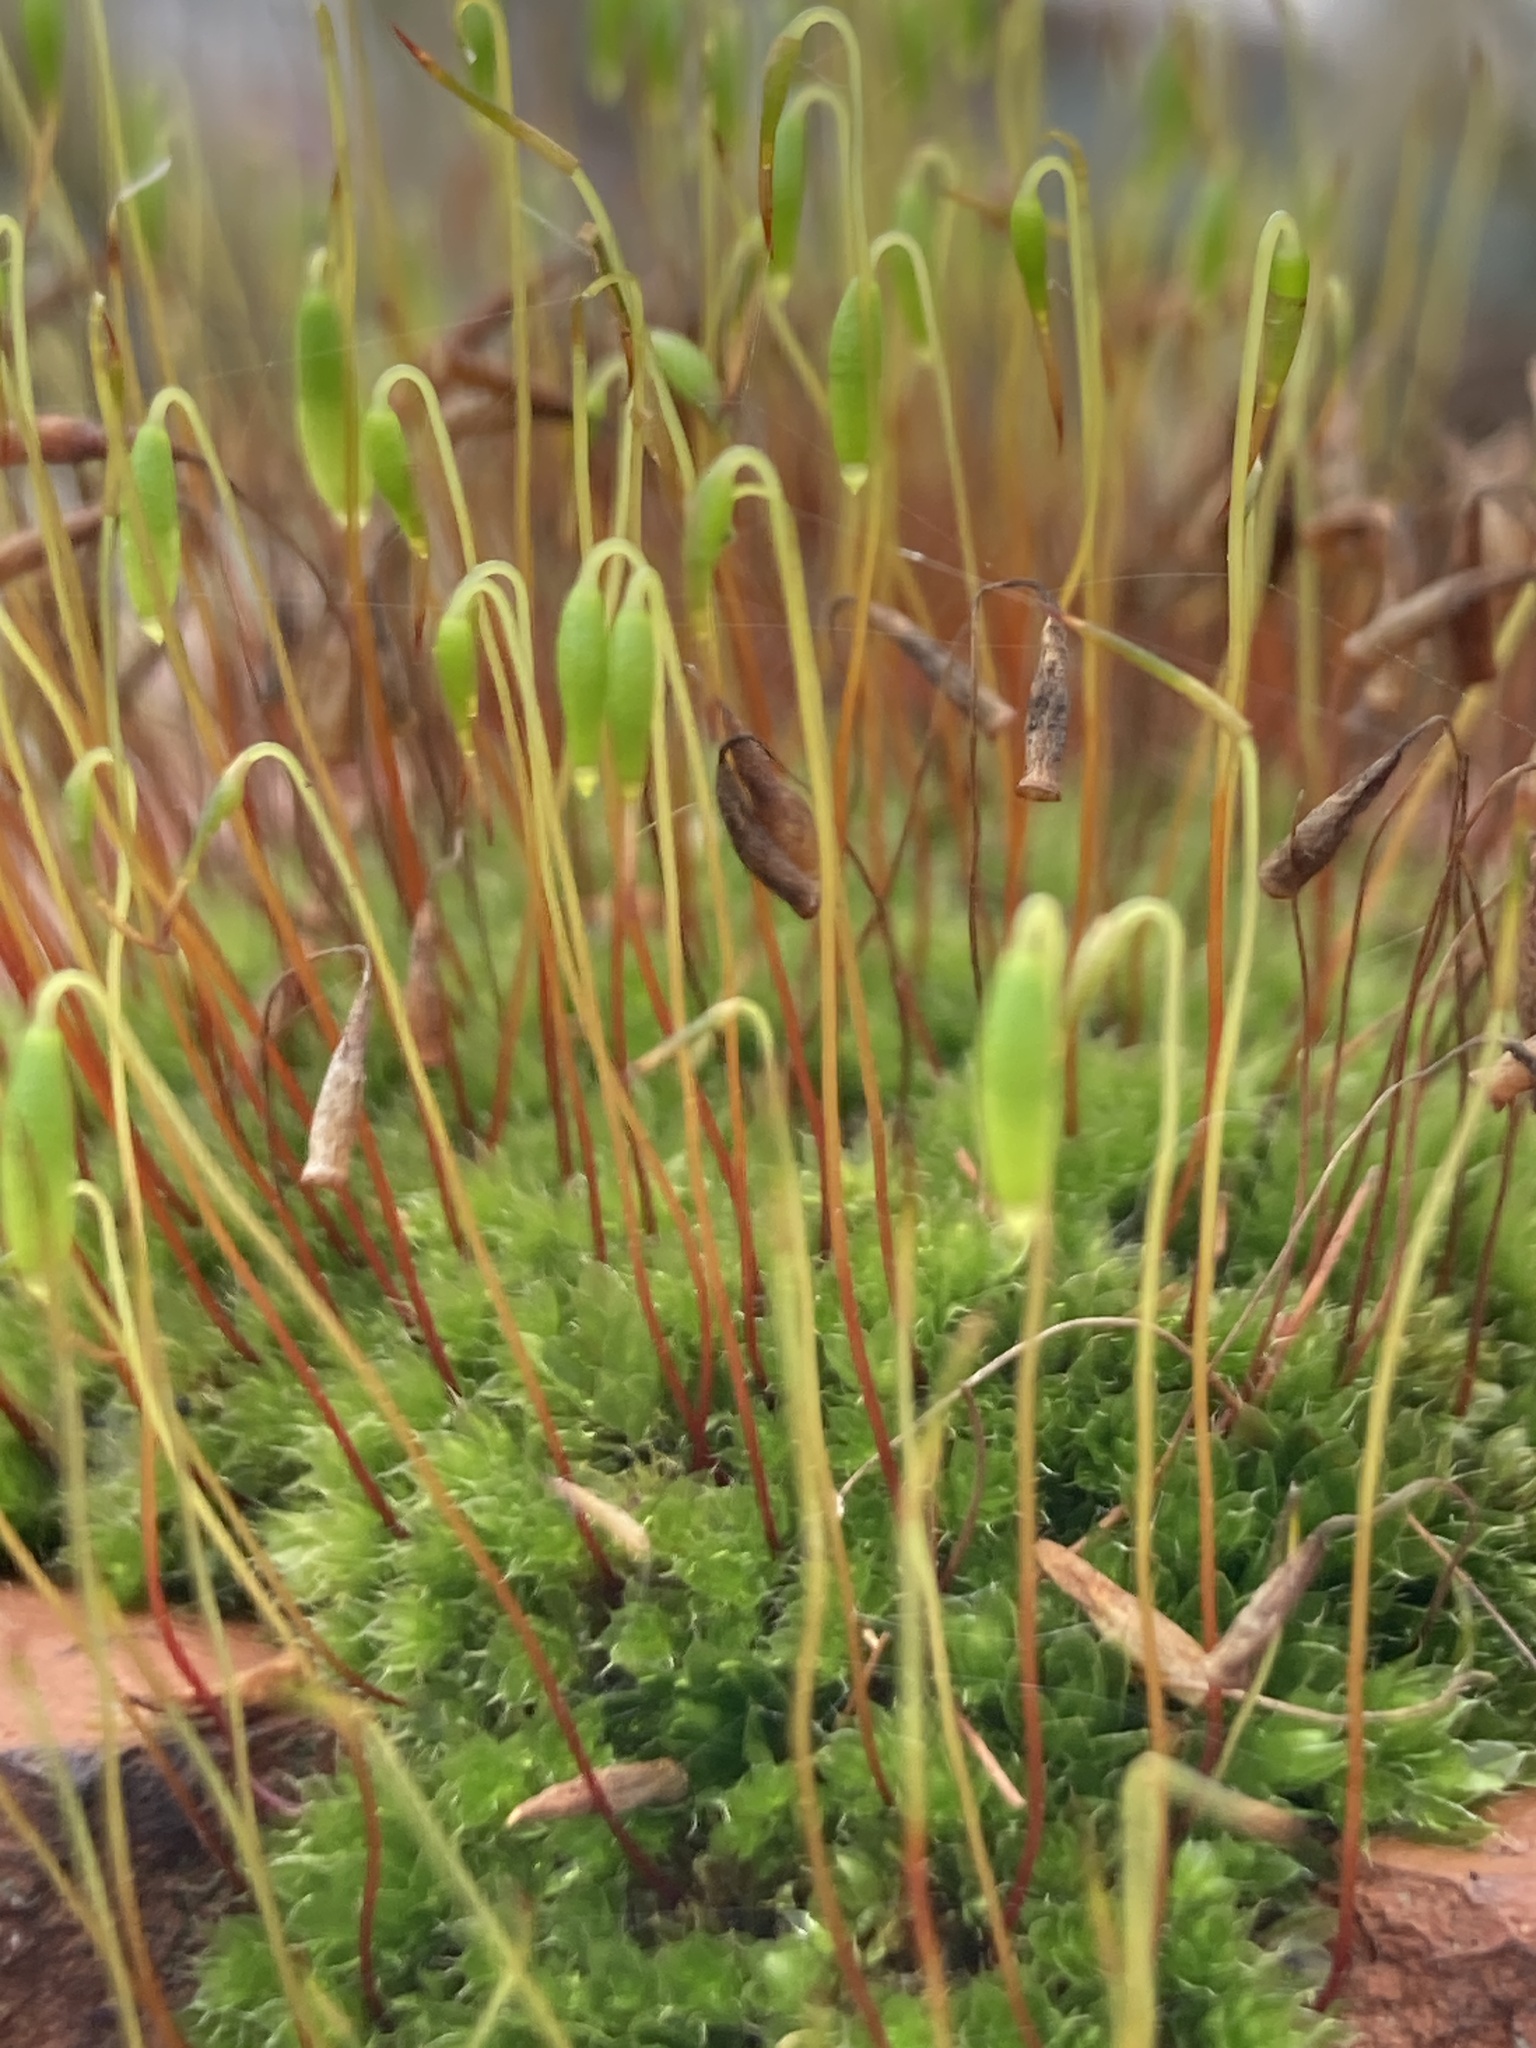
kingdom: Plantae
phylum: Bryophyta
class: Bryopsida
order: Bryales
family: Bryaceae
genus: Rosulabryum
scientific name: Rosulabryum capillare
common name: Capillary thread-moss
